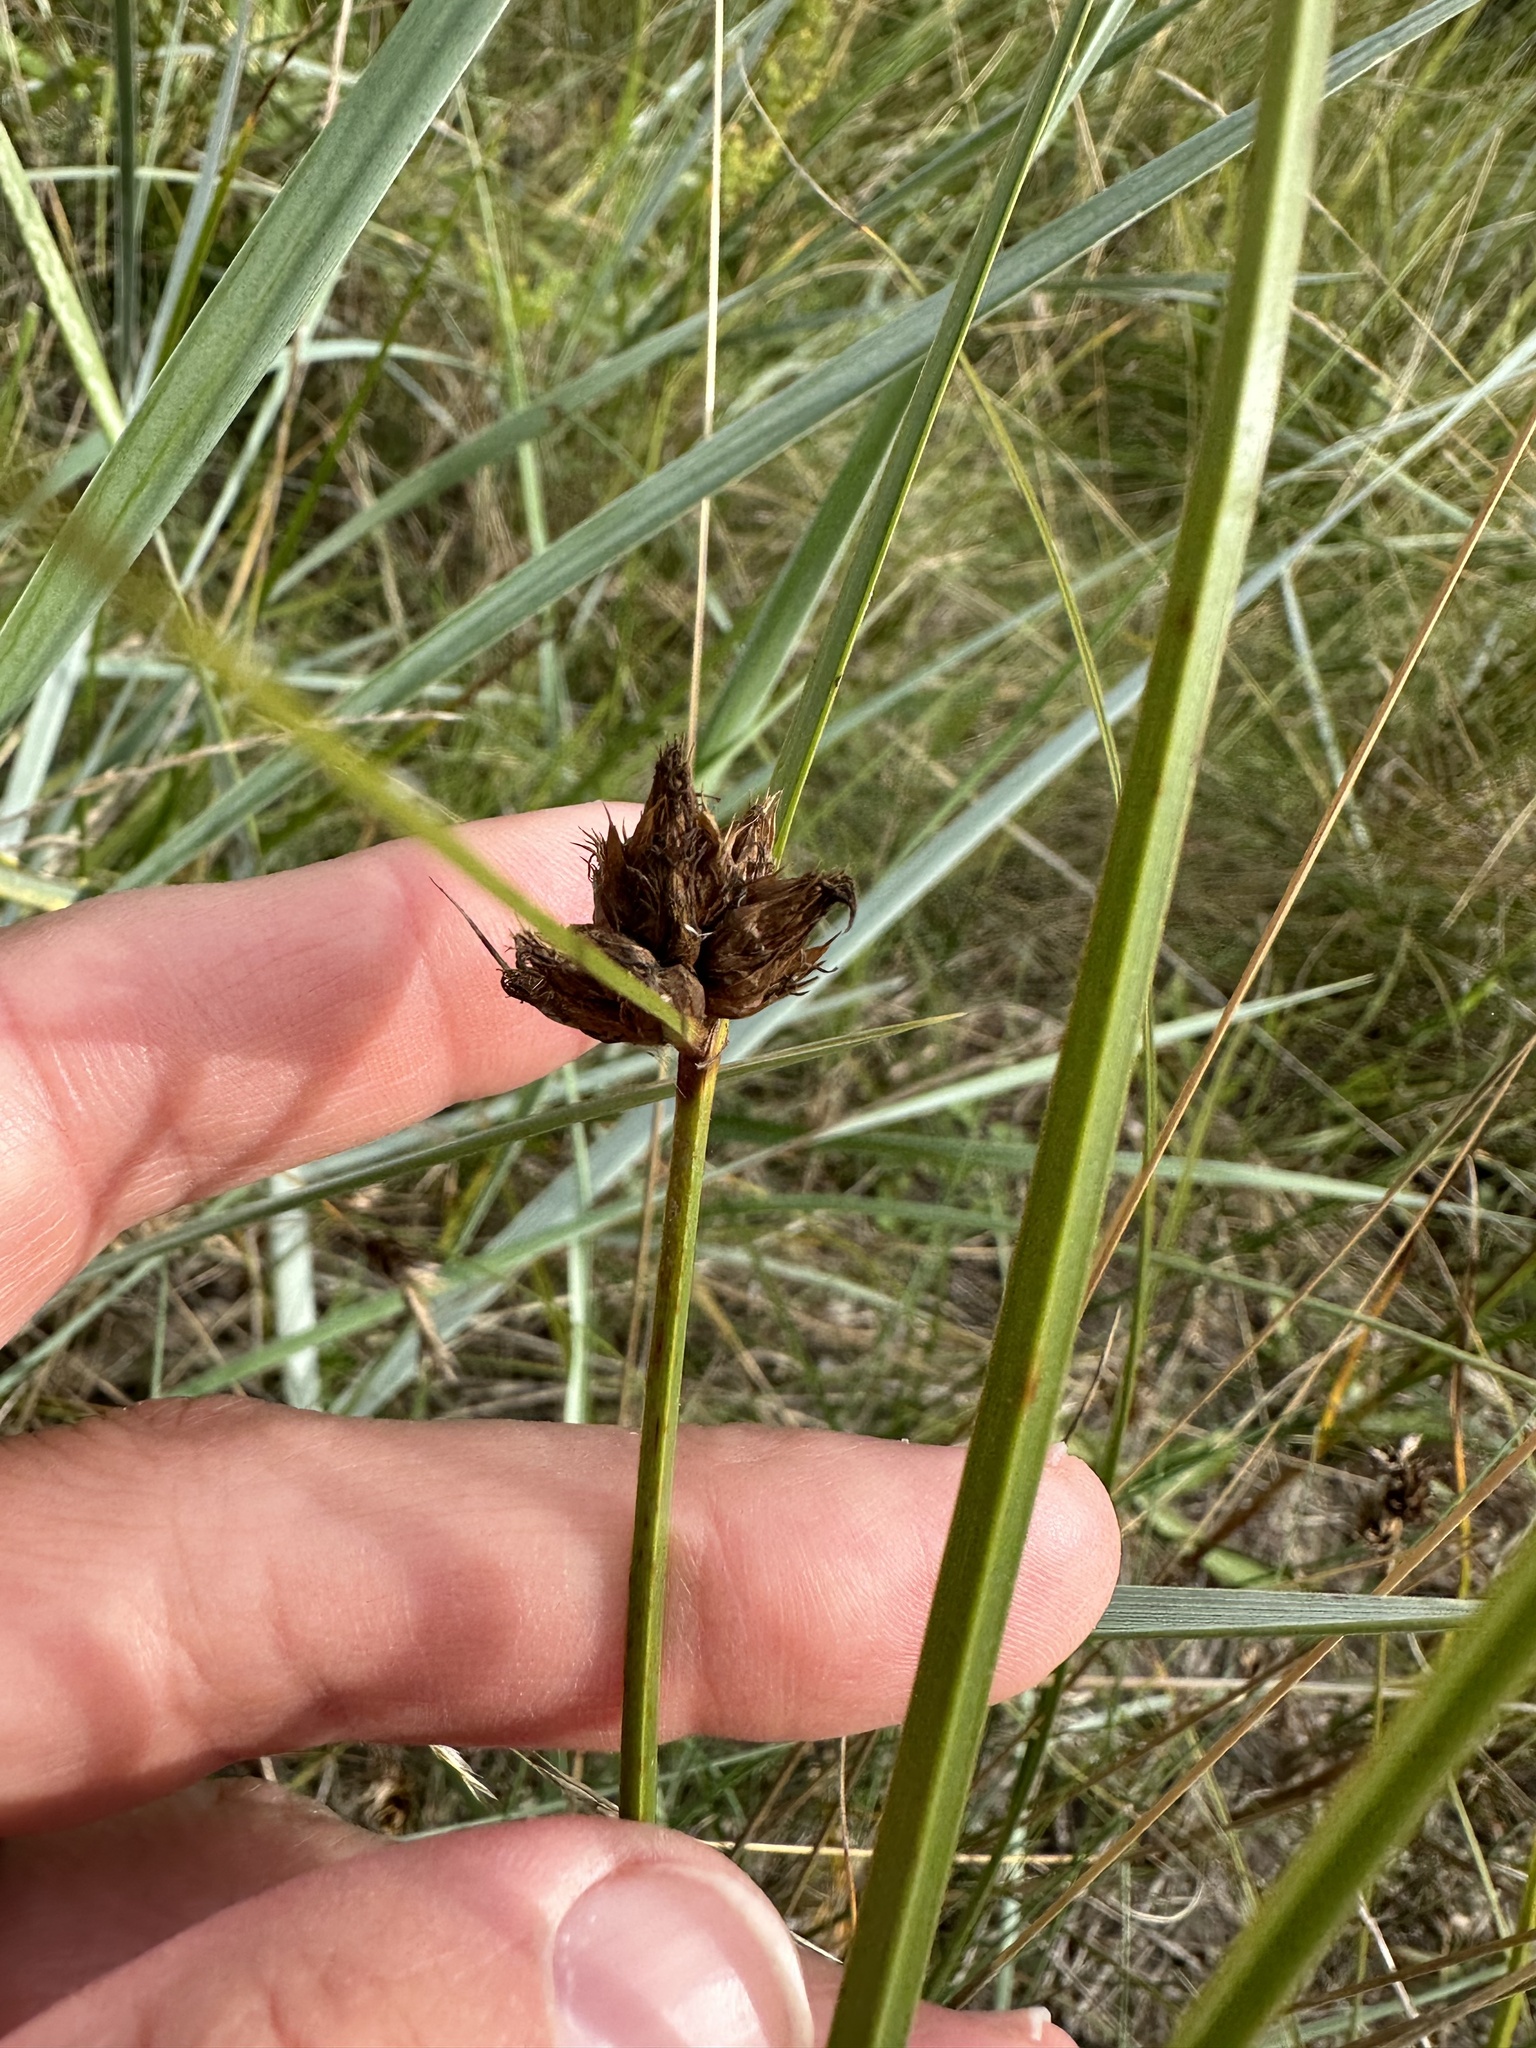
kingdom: Plantae
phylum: Tracheophyta
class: Liliopsida
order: Poales
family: Cyperaceae
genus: Bolboschoenus
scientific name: Bolboschoenus maritimus
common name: Sea club-rush
